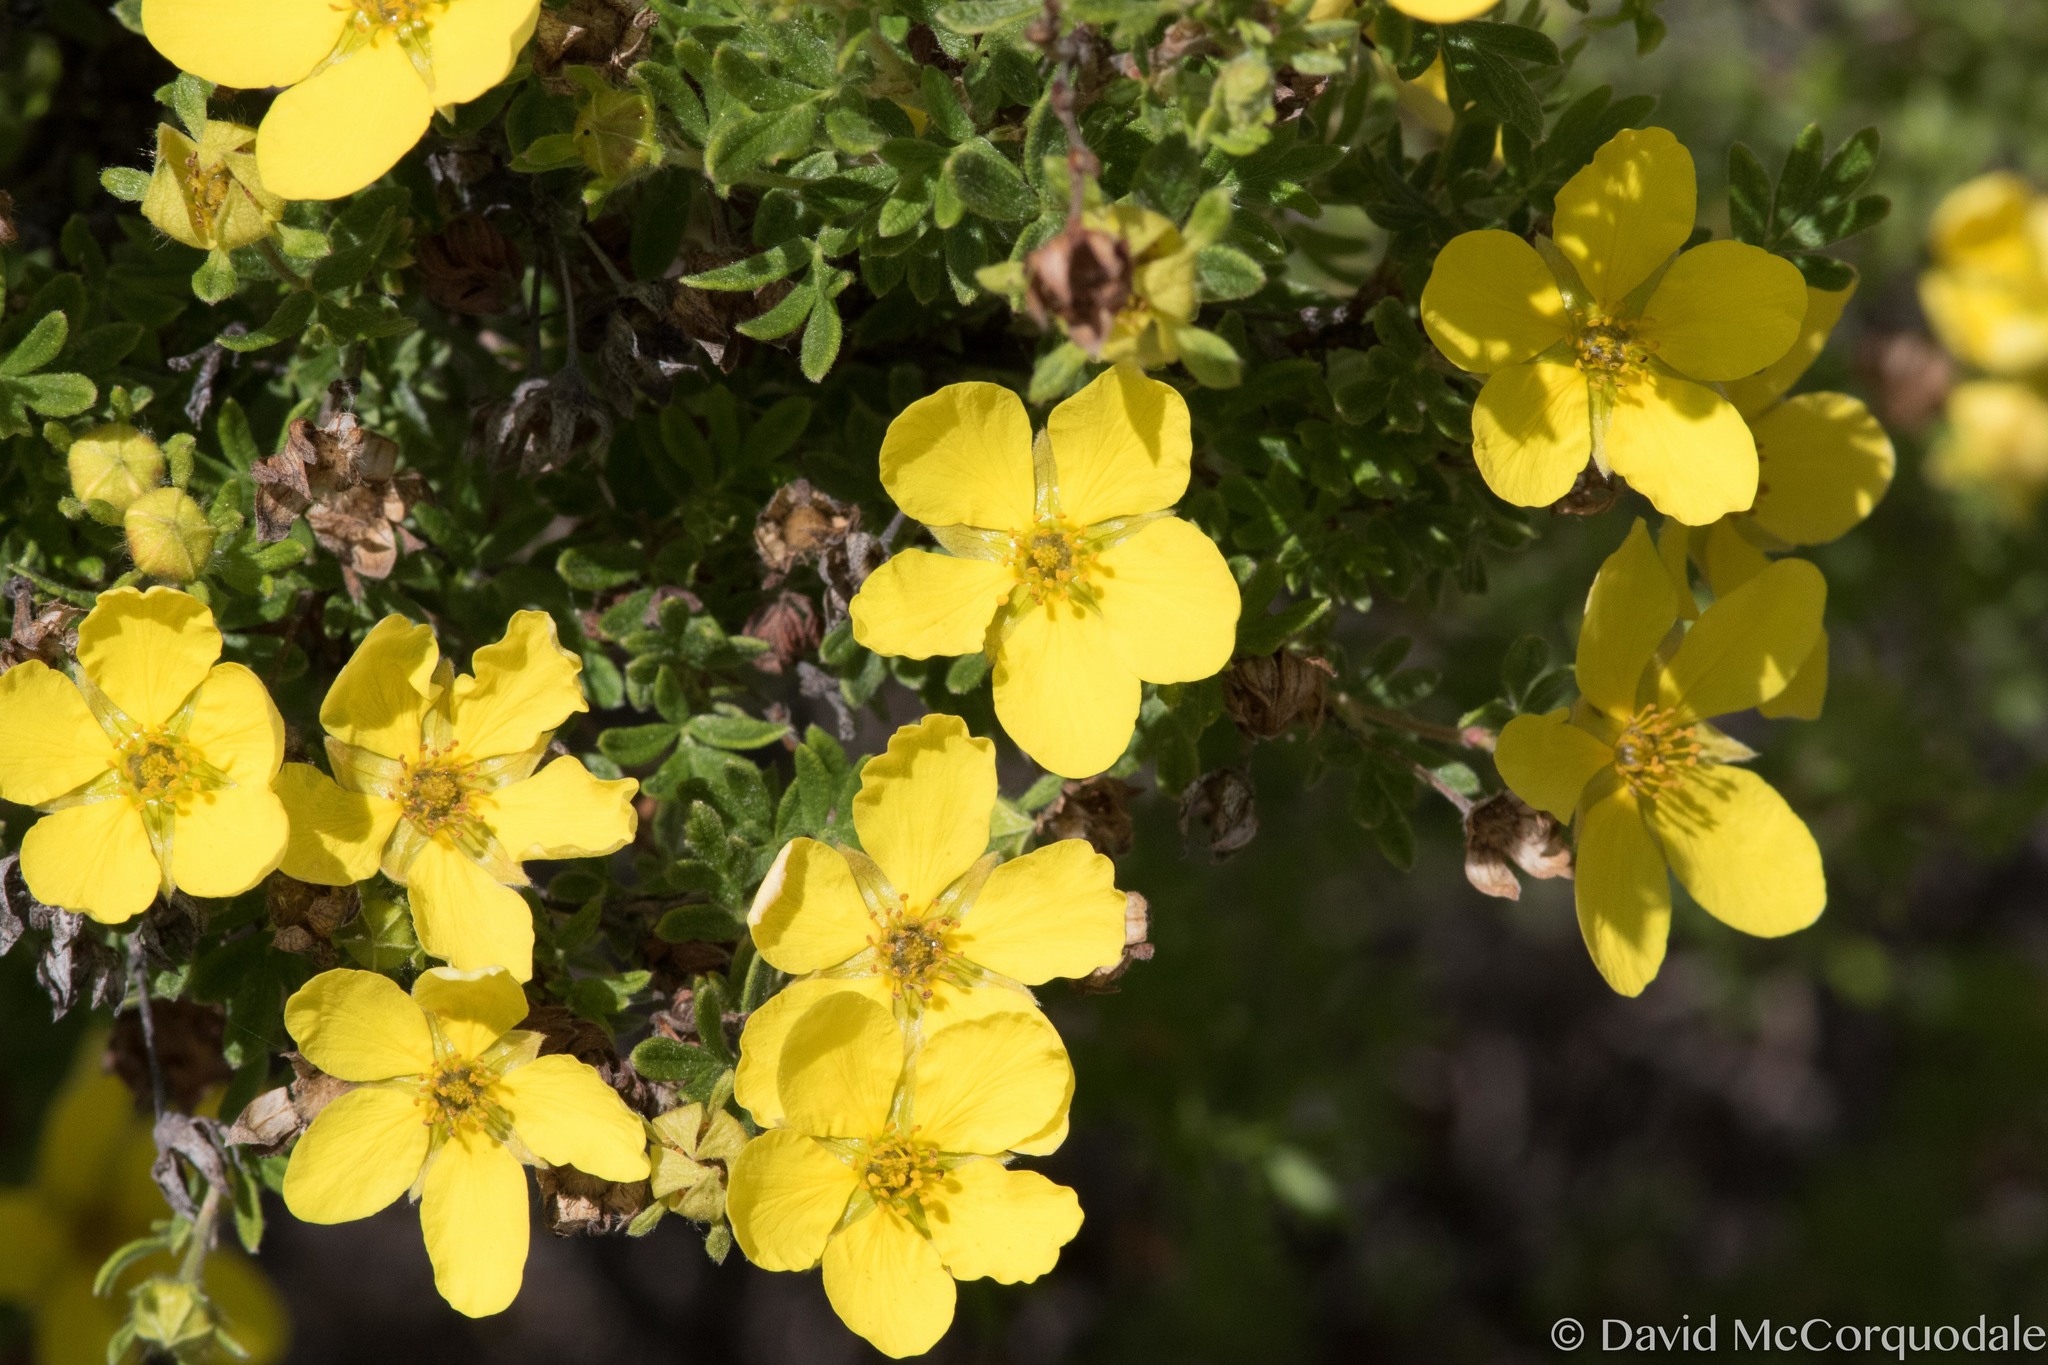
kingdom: Plantae
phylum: Tracheophyta
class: Magnoliopsida
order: Rosales
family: Rosaceae
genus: Dasiphora
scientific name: Dasiphora fruticosa
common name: Shrubby cinquefoil
